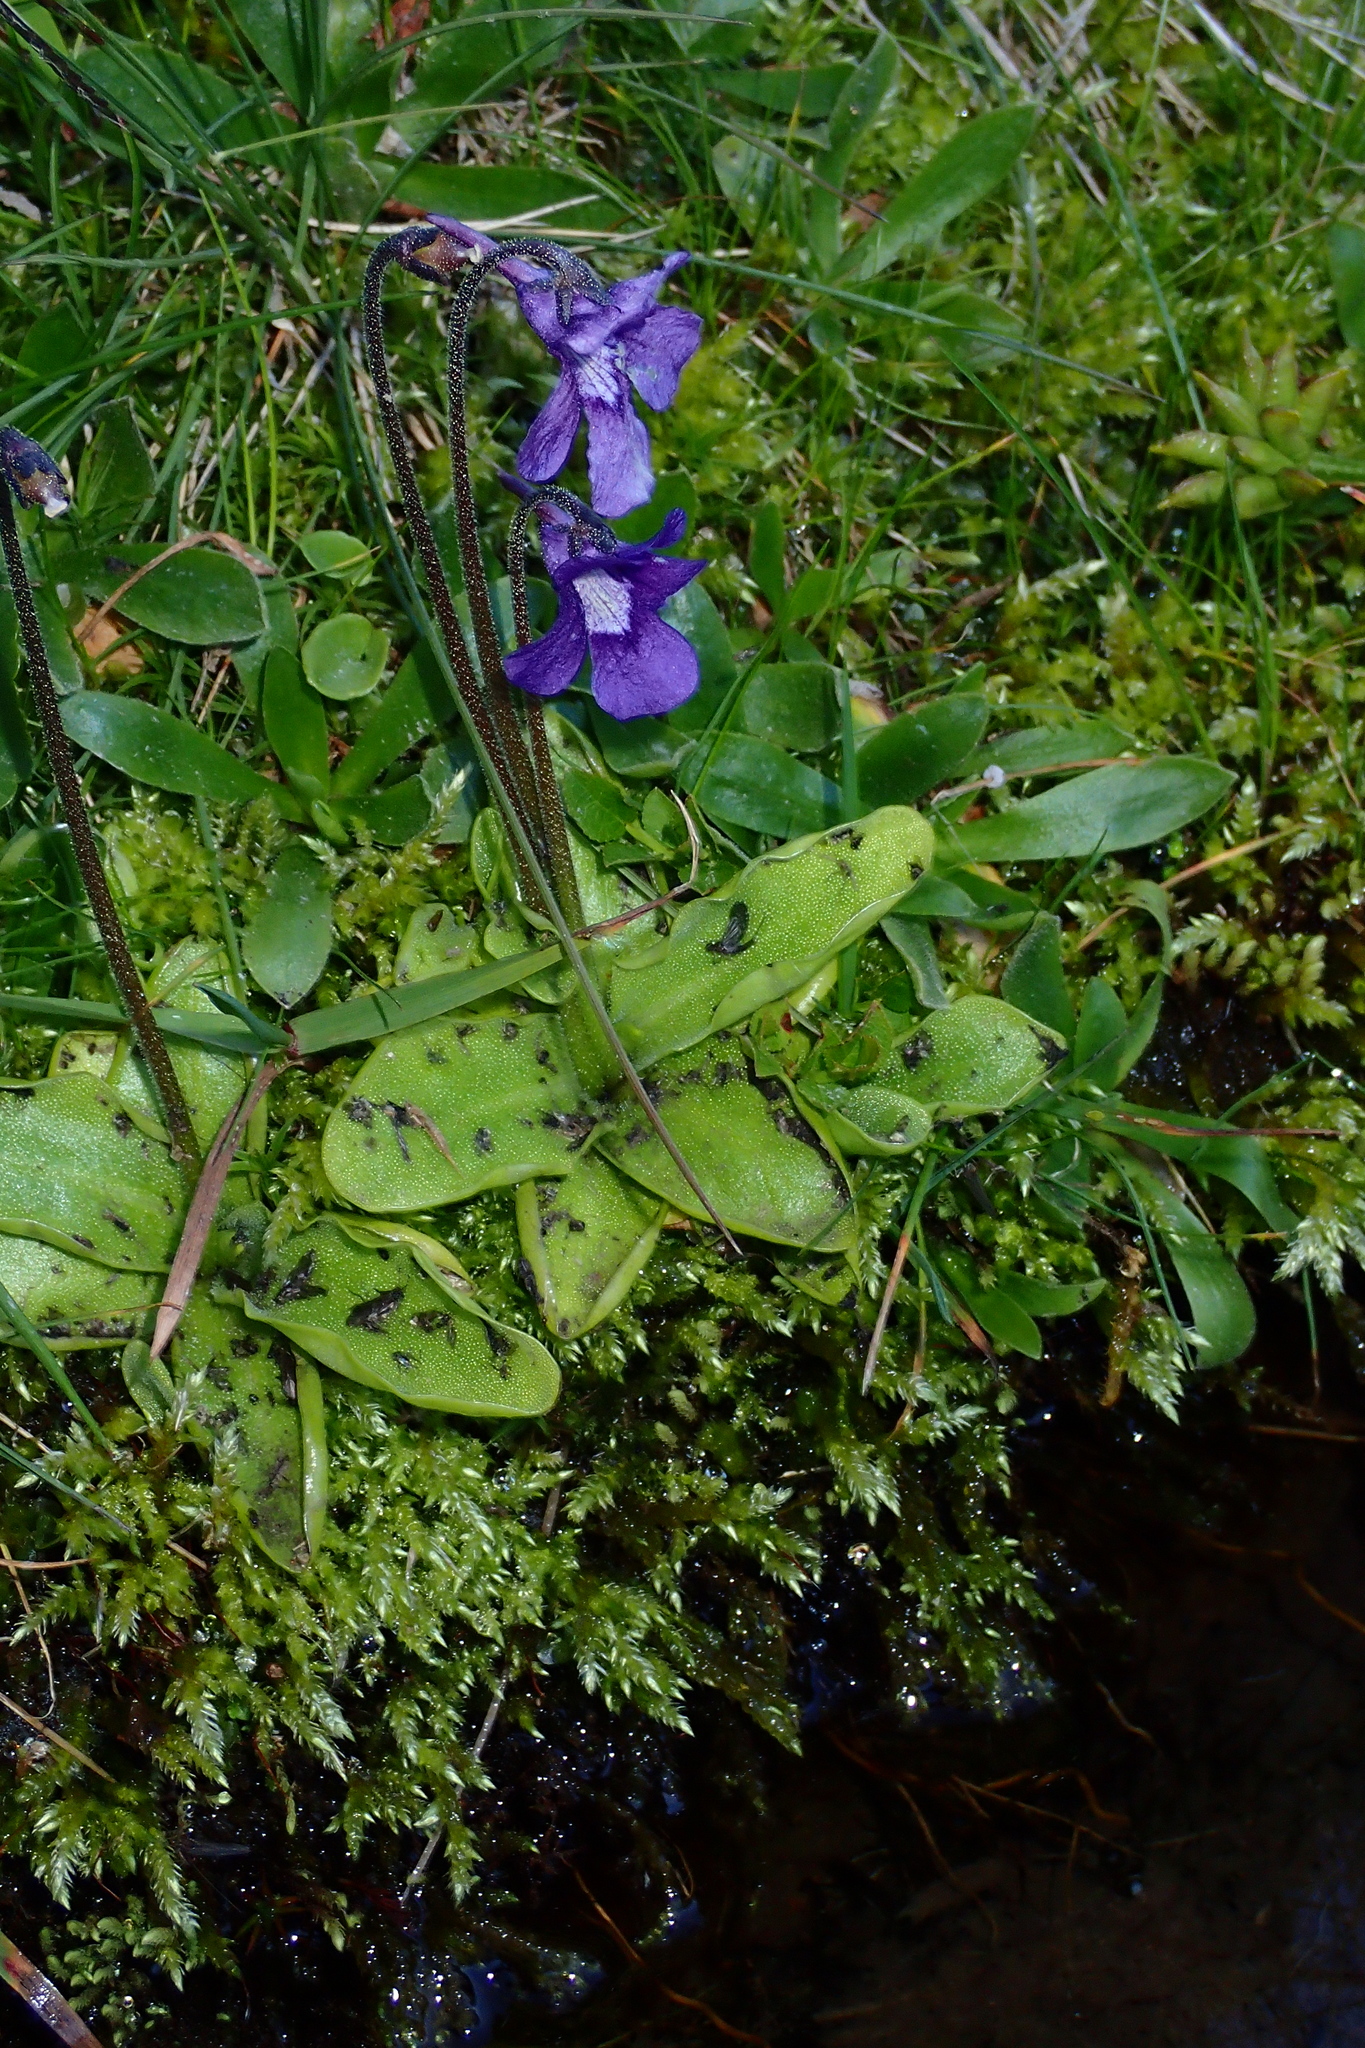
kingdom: Plantae
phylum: Tracheophyta
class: Magnoliopsida
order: Lamiales
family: Lentibulariaceae
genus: Pinguicula
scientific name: Pinguicula grandiflora
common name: Large-flowered butterwort
